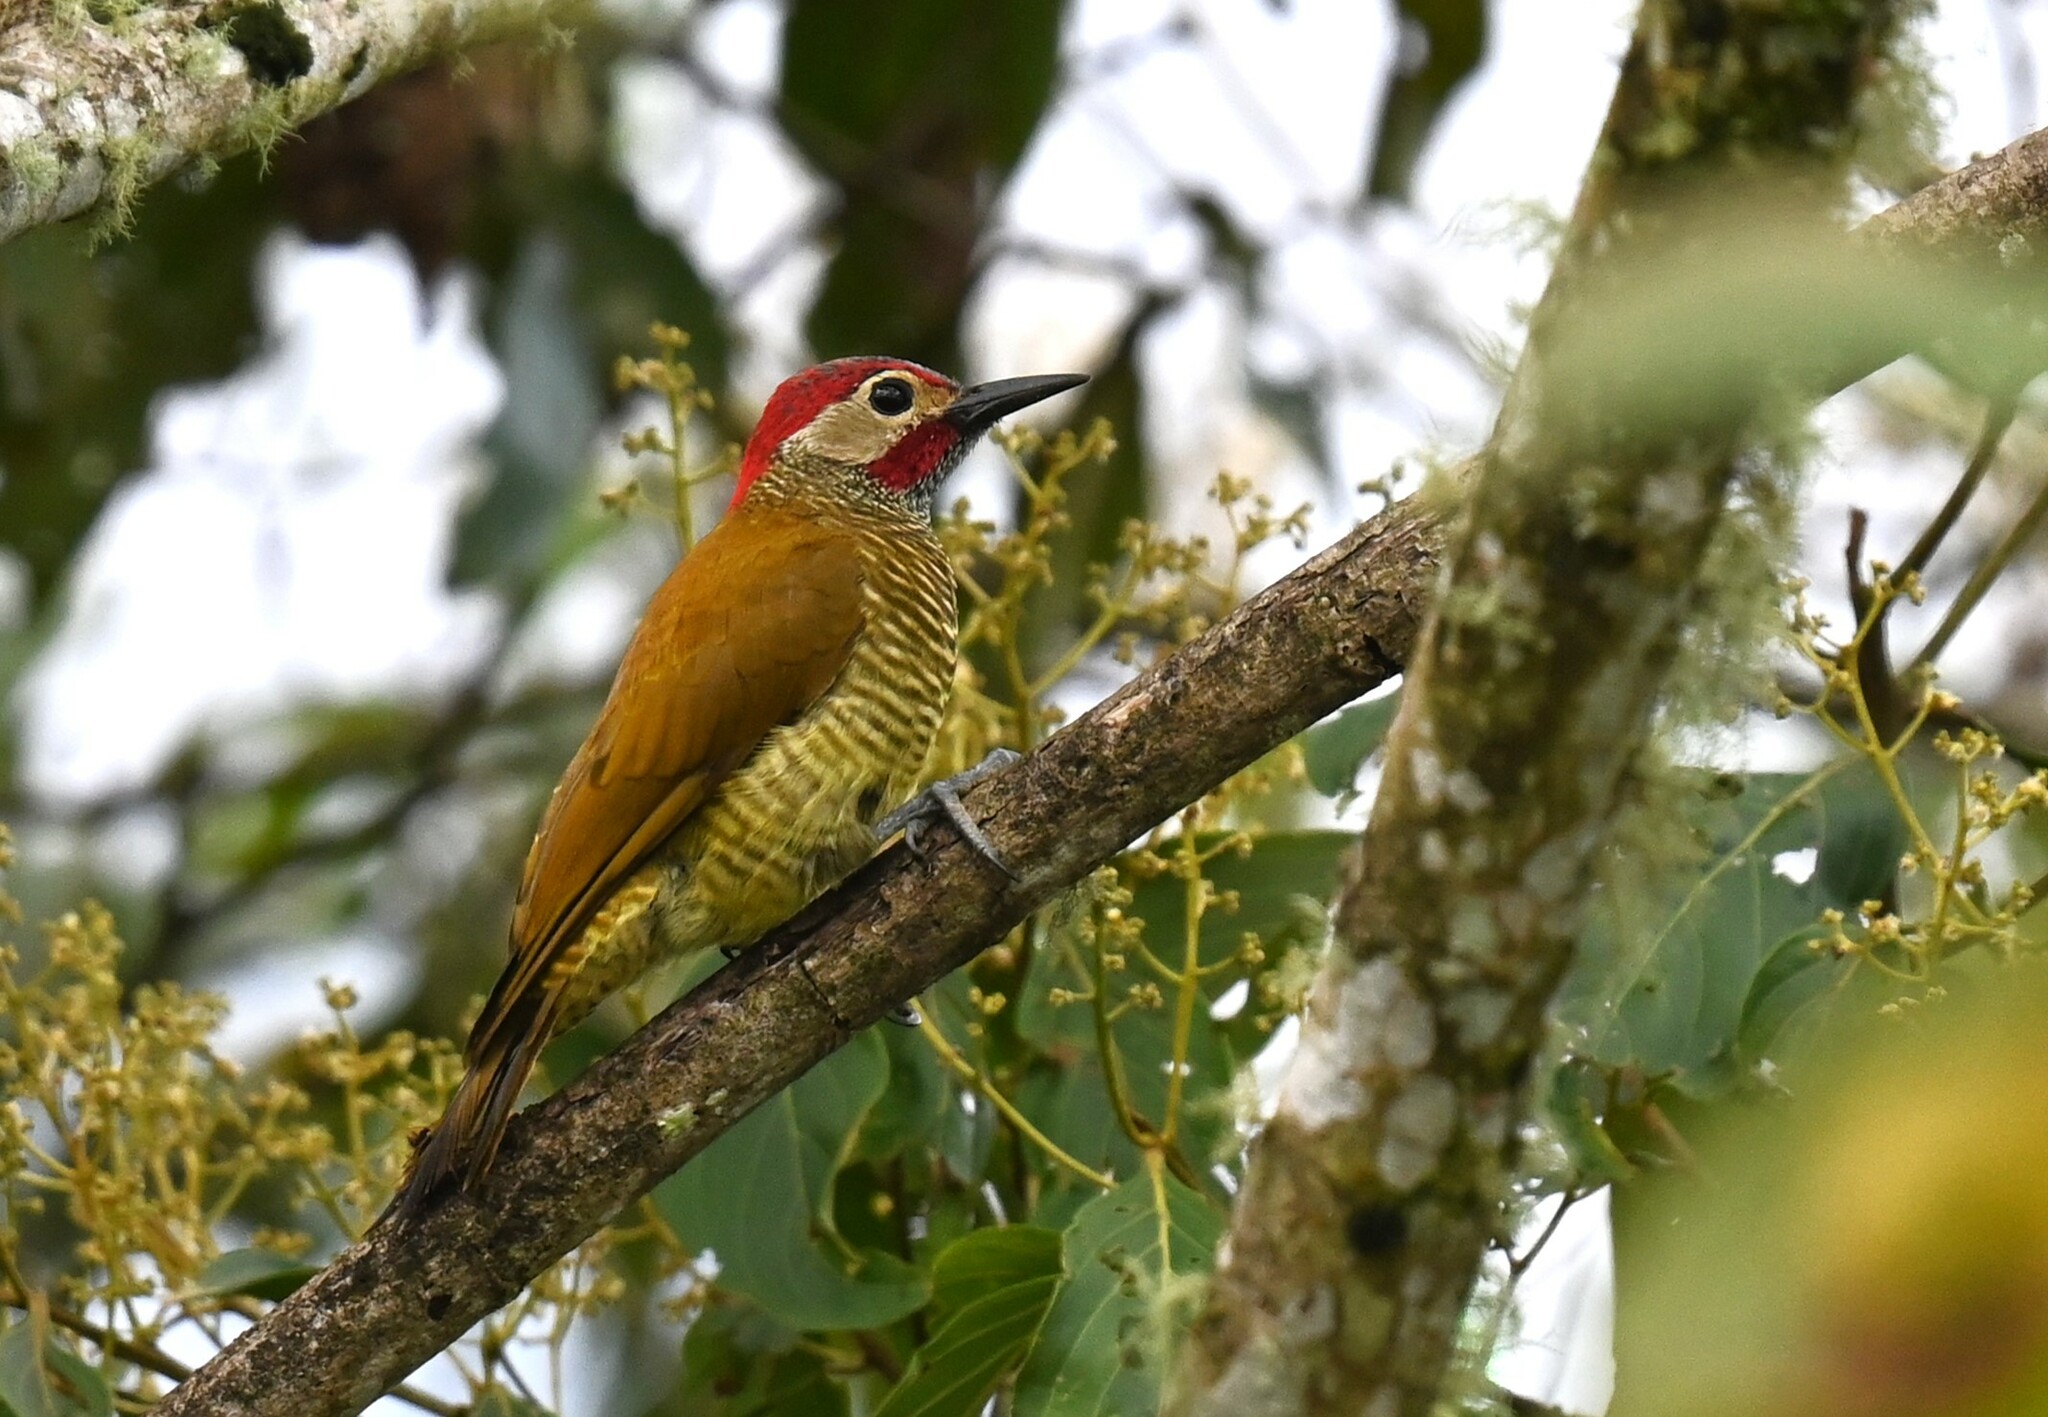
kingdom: Animalia
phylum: Chordata
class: Aves
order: Piciformes
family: Picidae
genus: Colaptes
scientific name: Colaptes rubiginosus
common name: Golden-olive woodpecker
